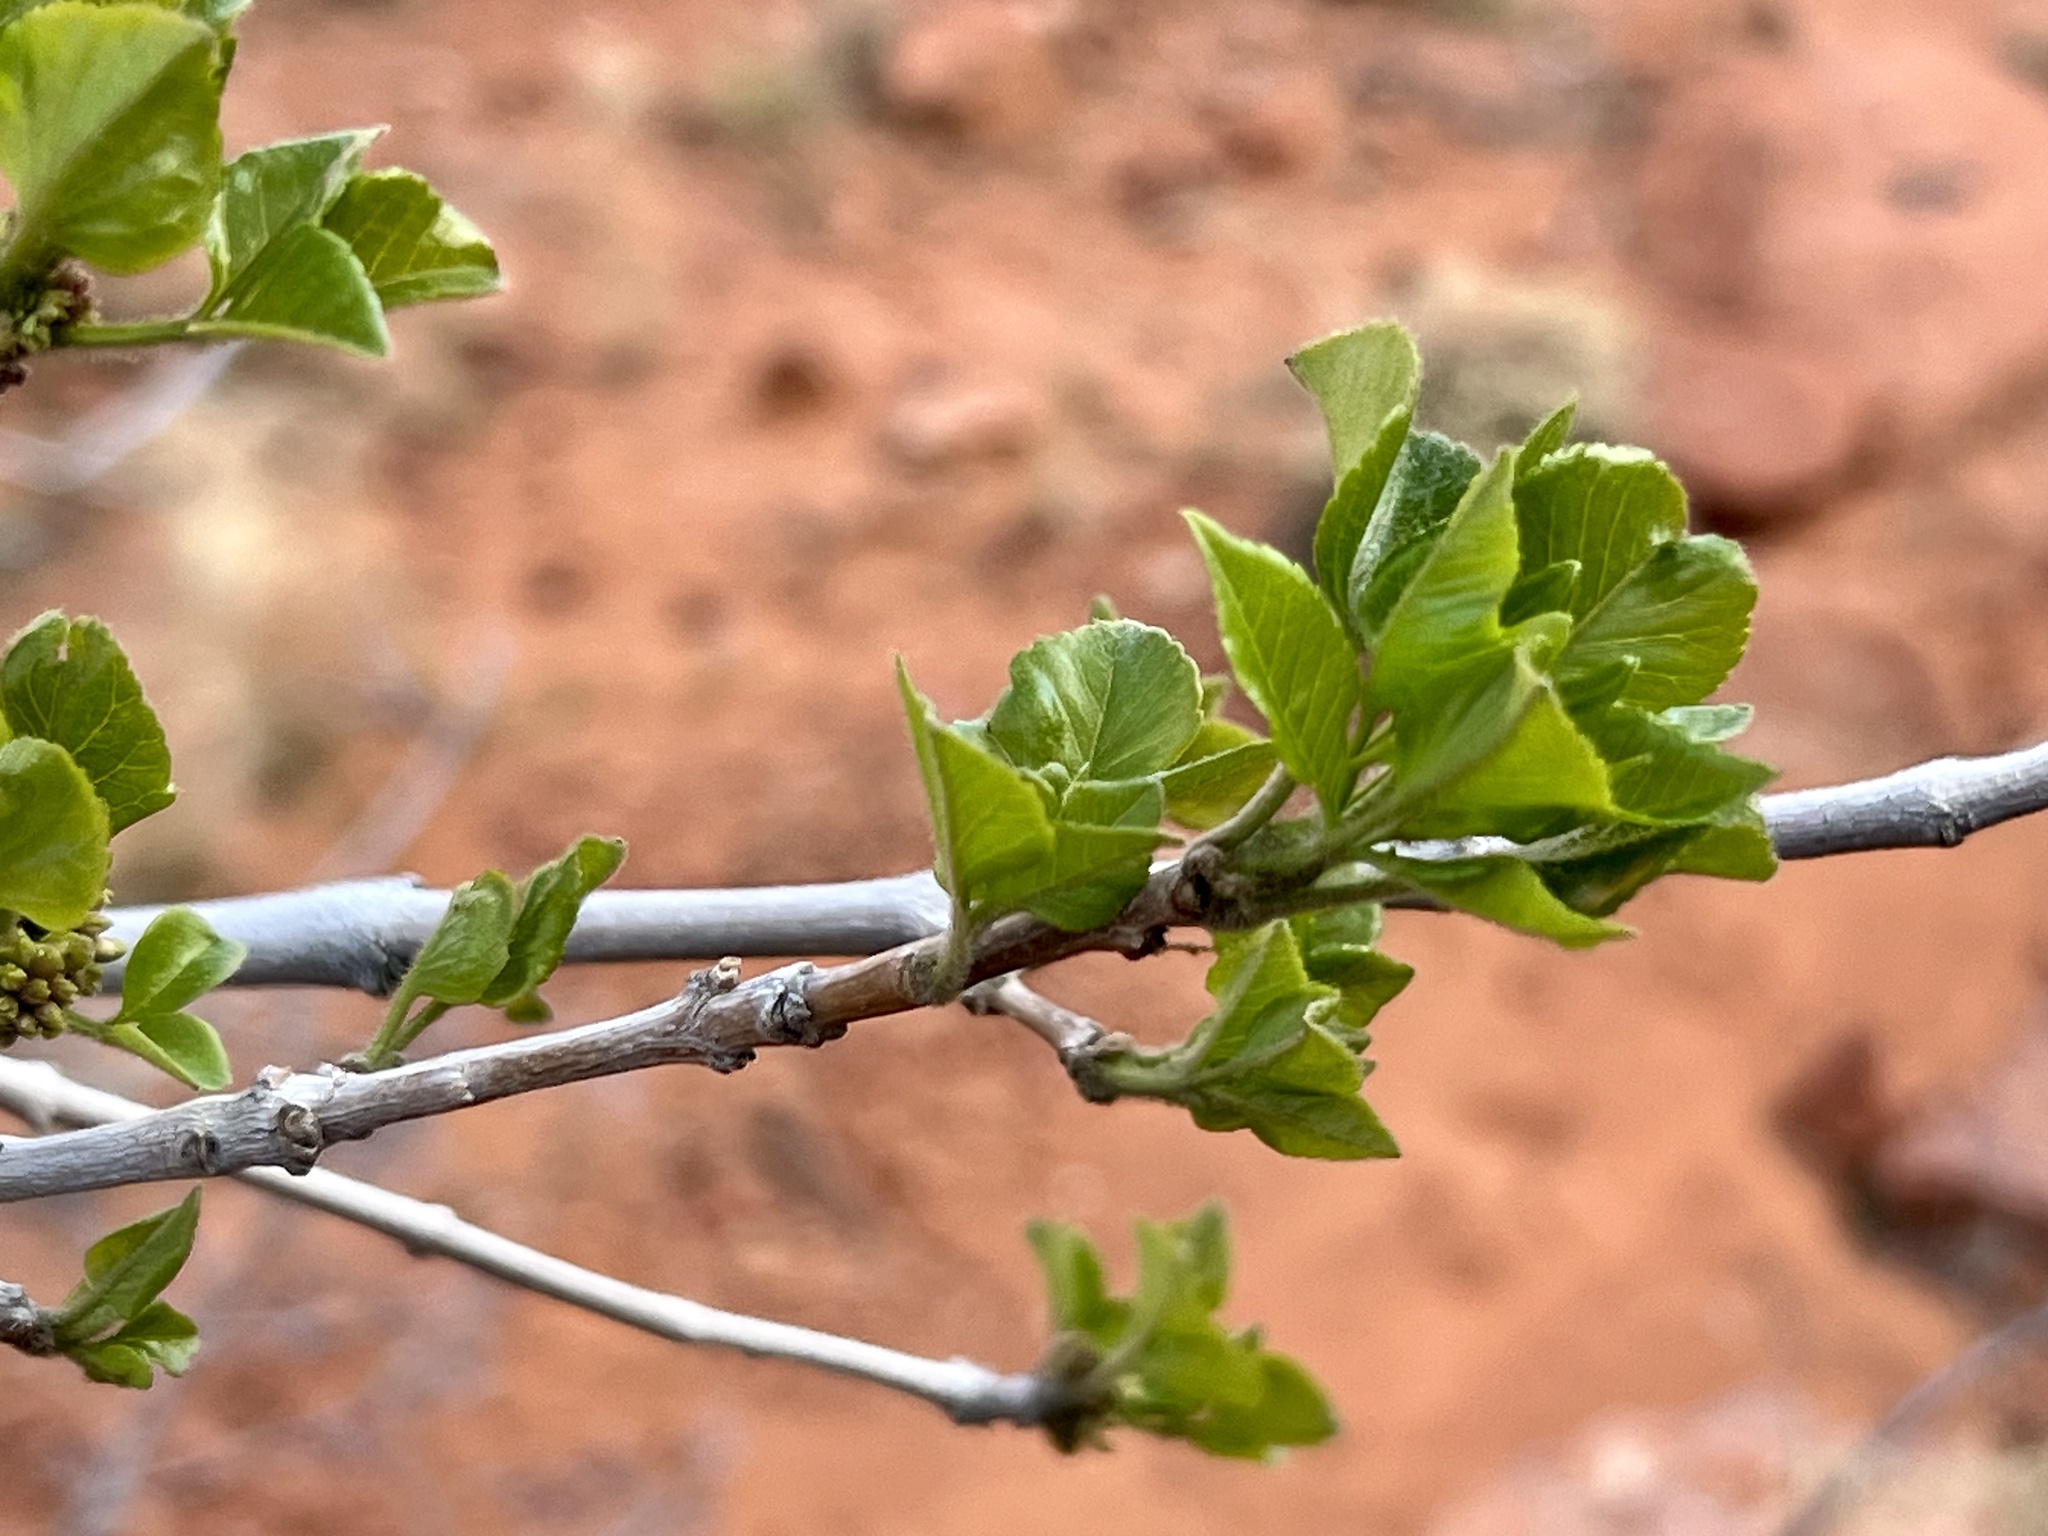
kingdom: Plantae
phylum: Tracheophyta
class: Magnoliopsida
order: Lamiales
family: Oleaceae
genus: Fraxinus
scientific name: Fraxinus anomala
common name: Utah ash
